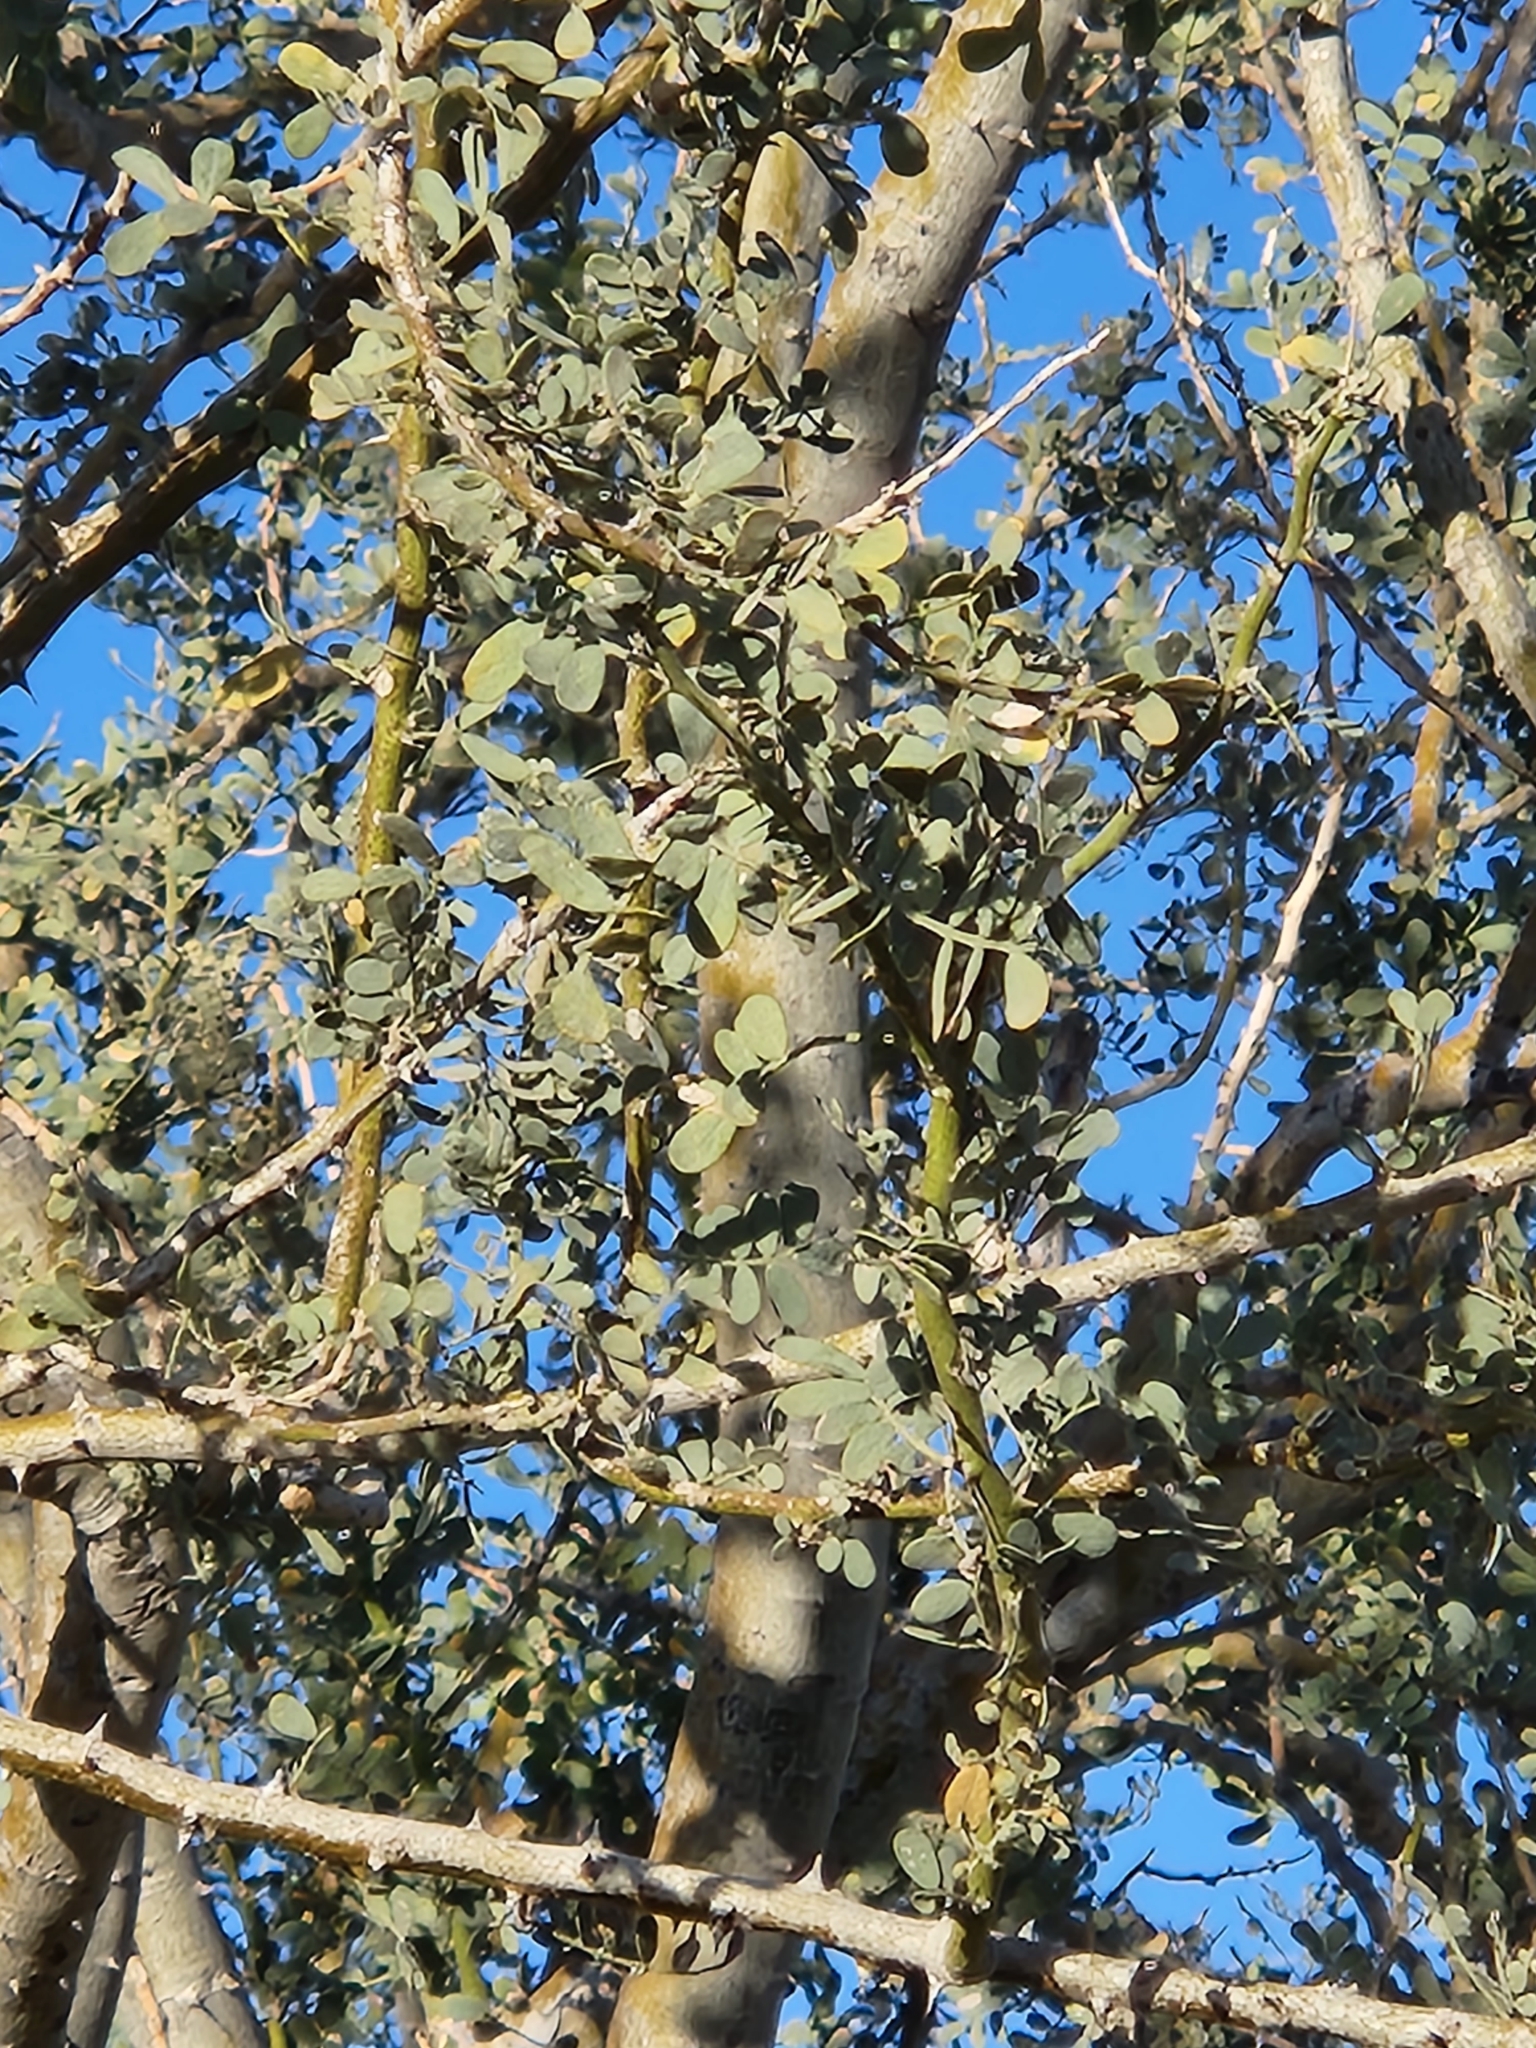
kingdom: Plantae
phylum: Tracheophyta
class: Magnoliopsida
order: Fabales
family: Fabaceae
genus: Olneya
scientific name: Olneya tesota
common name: Desert ironwood
